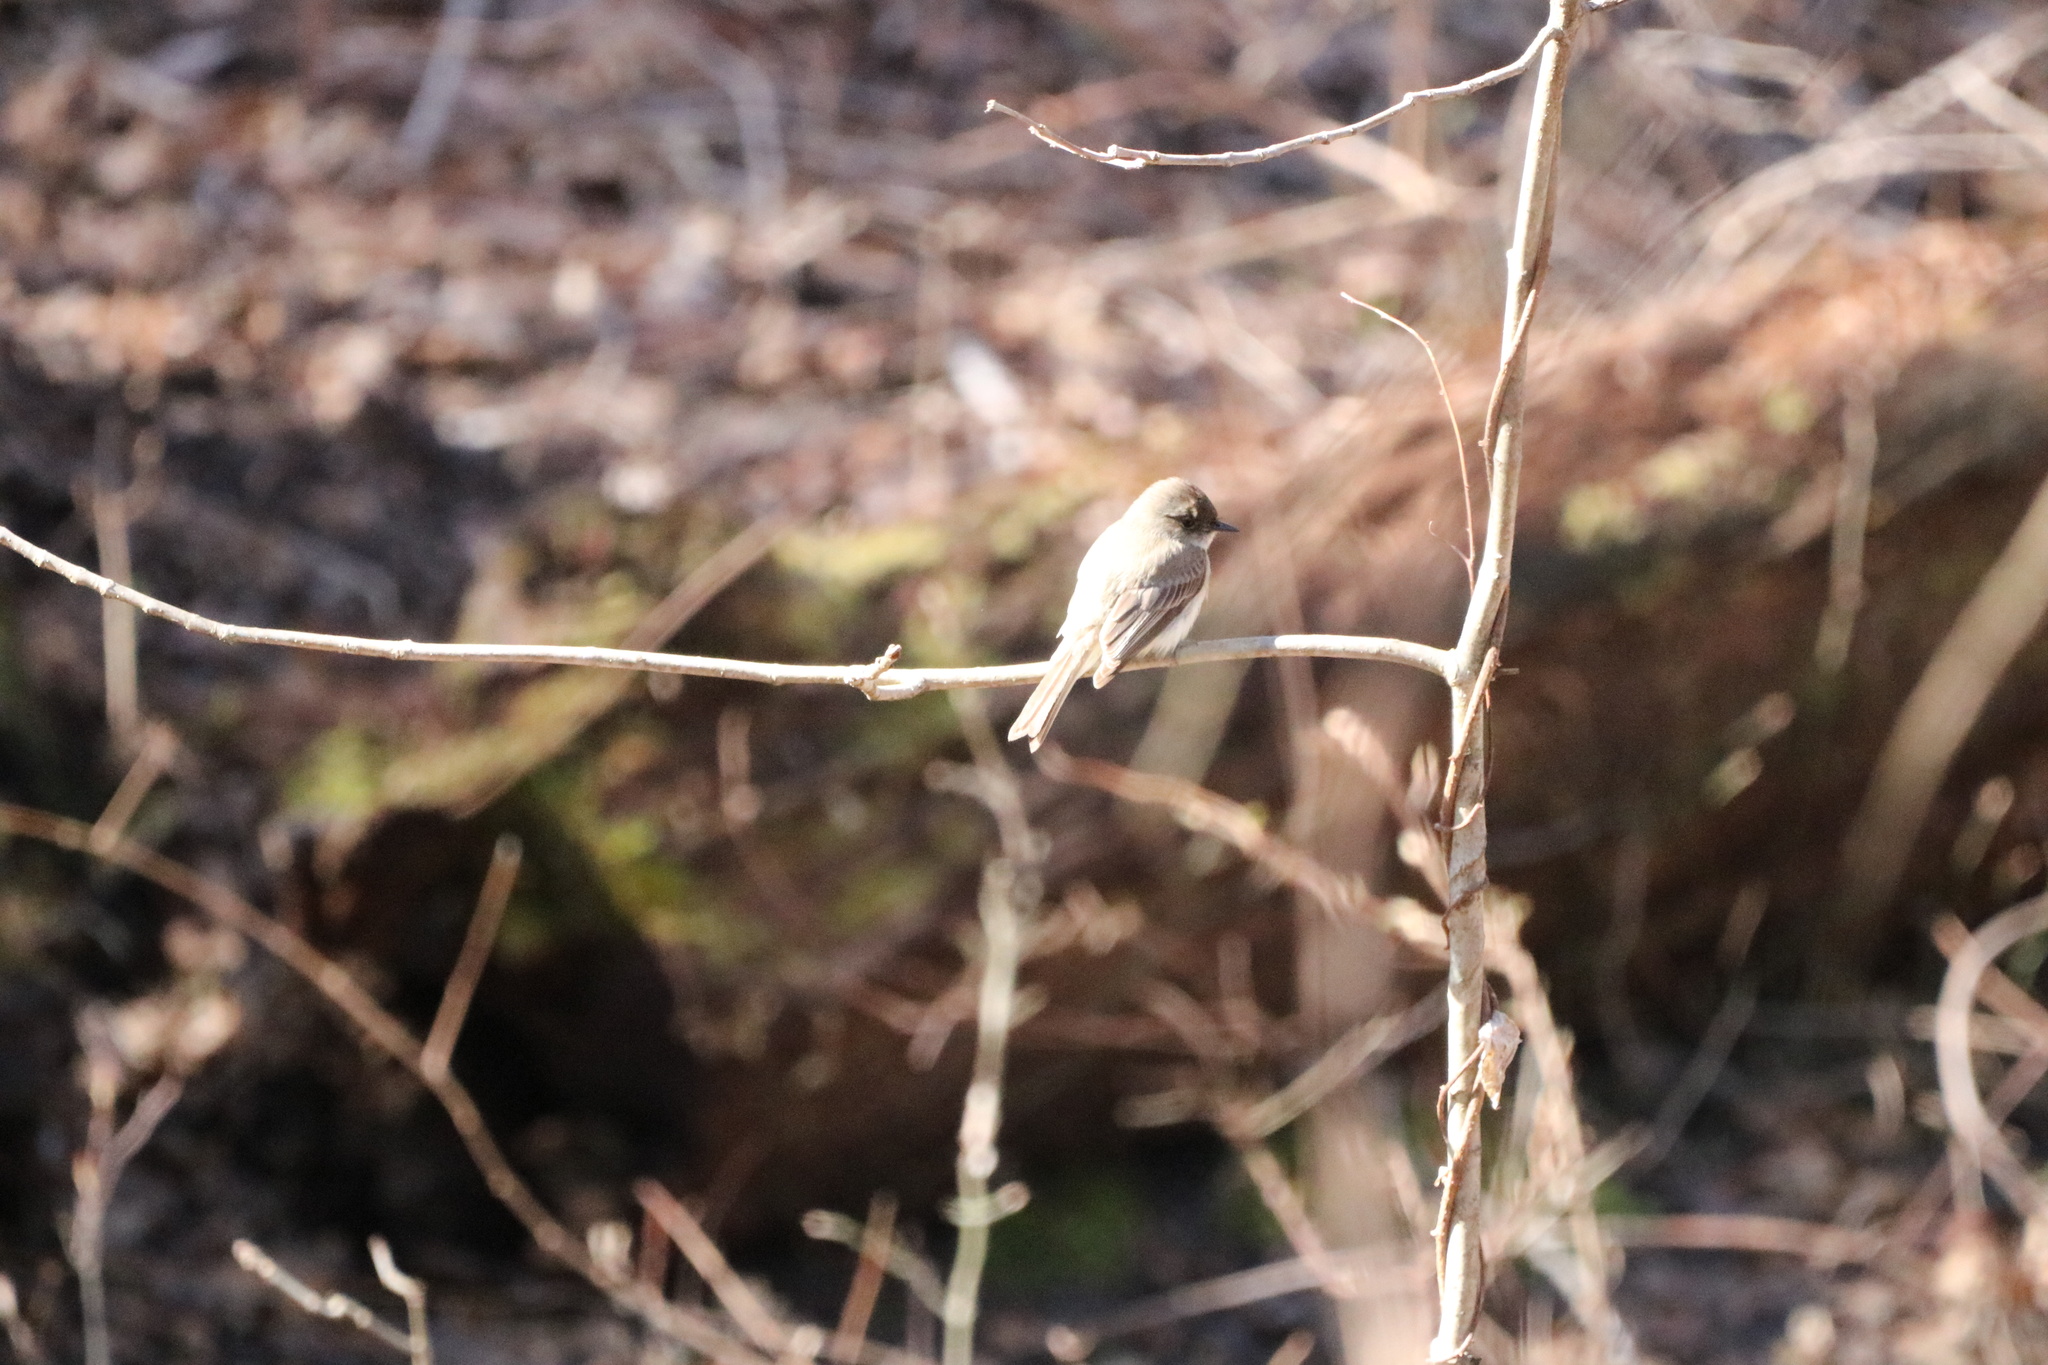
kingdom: Animalia
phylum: Chordata
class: Aves
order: Passeriformes
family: Tyrannidae
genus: Sayornis
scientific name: Sayornis phoebe
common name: Eastern phoebe
